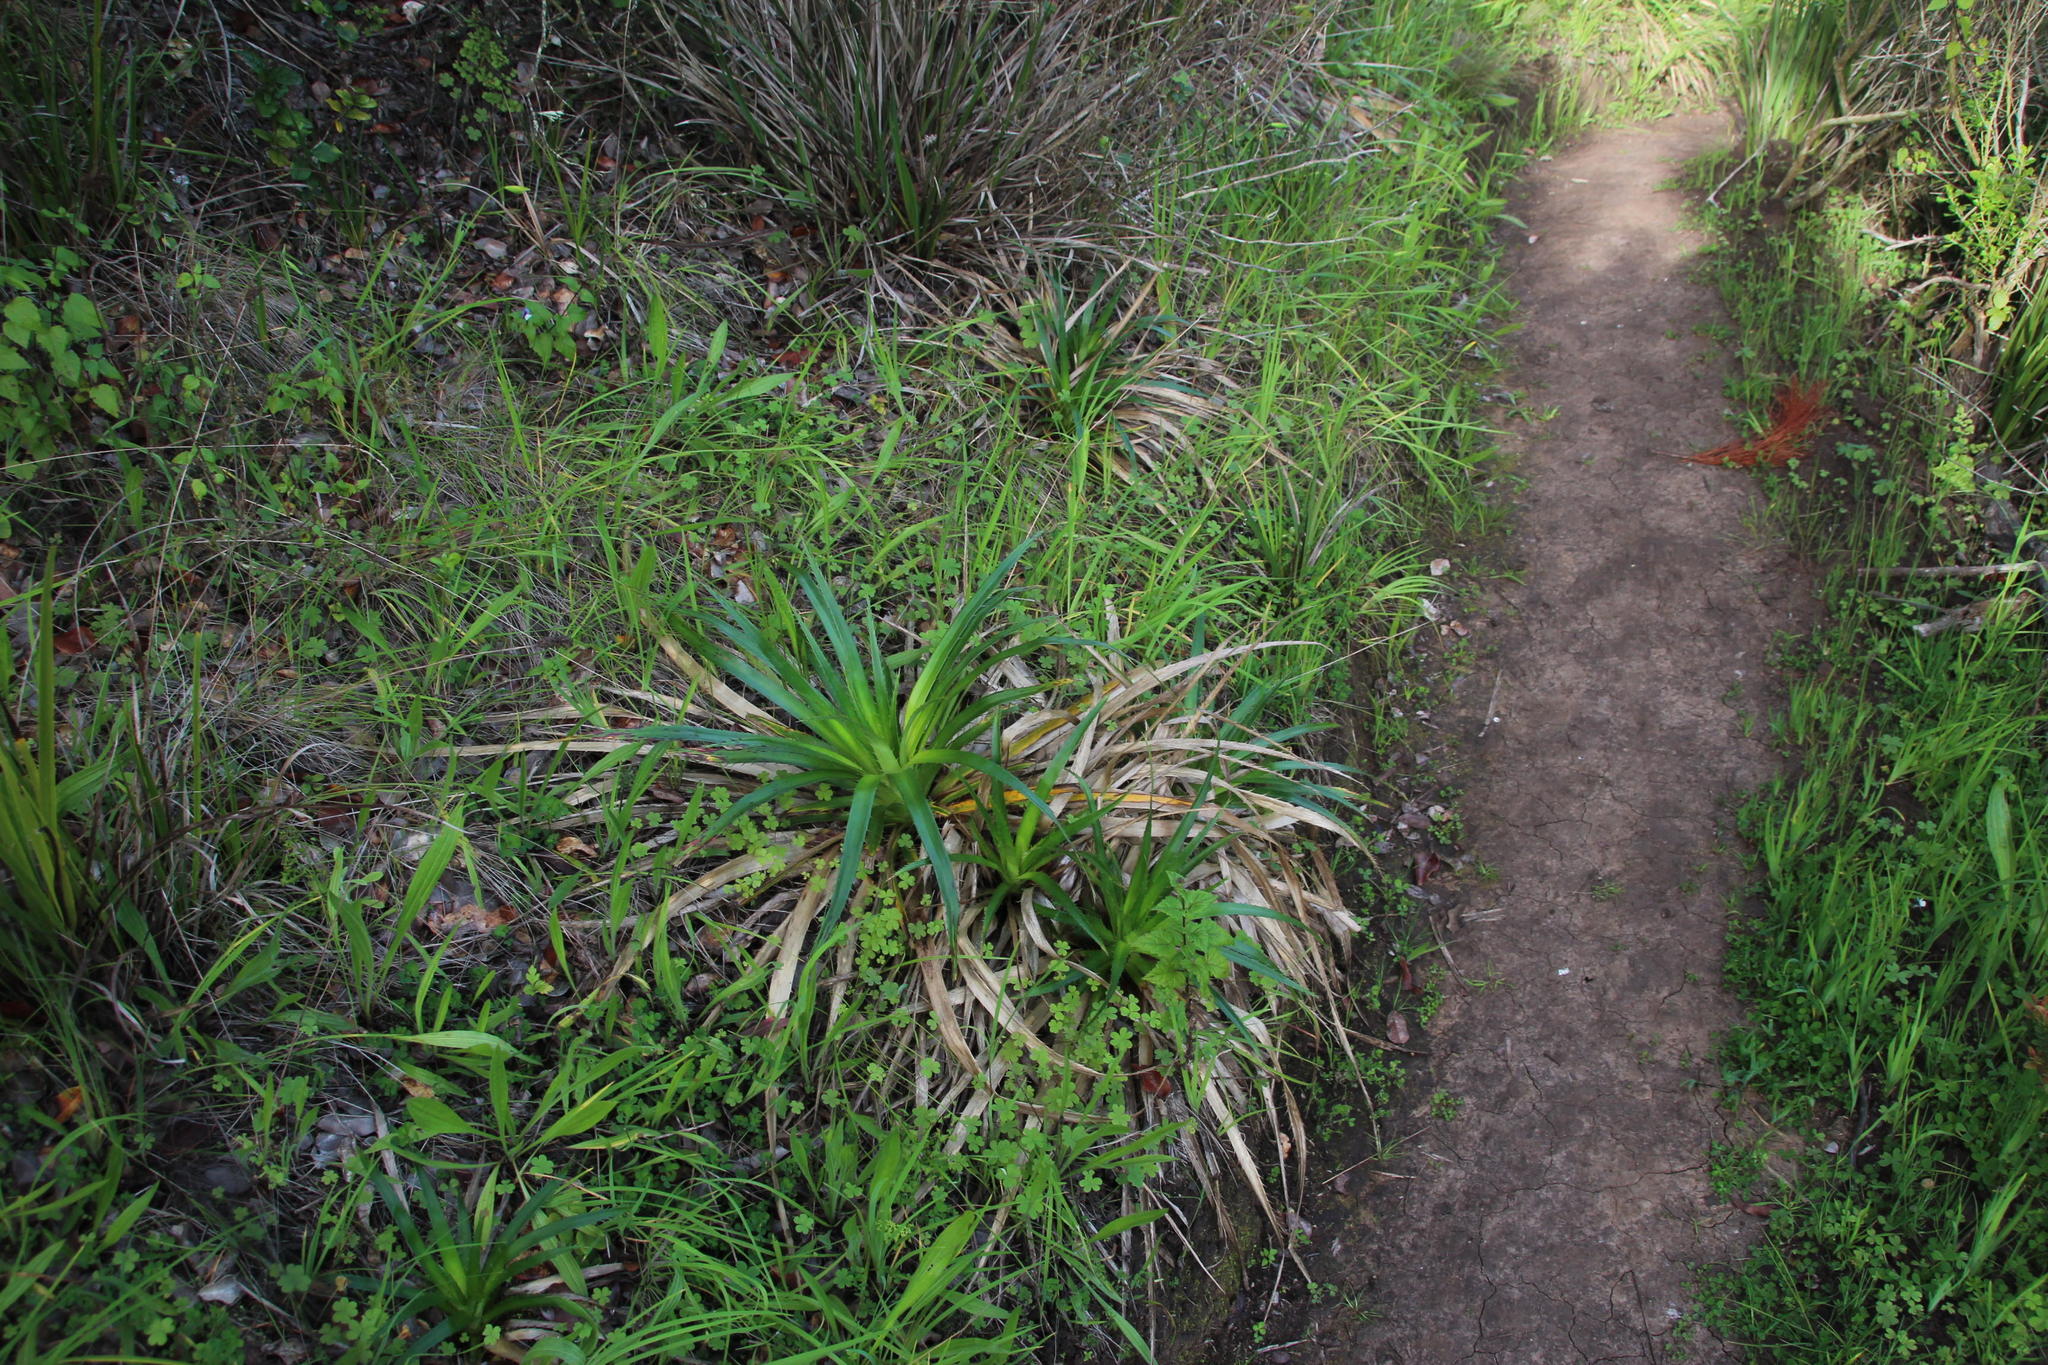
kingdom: Plantae
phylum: Tracheophyta
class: Magnoliopsida
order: Apiales
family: Apiaceae
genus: Eryngium
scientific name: Eryngium humboldtii
